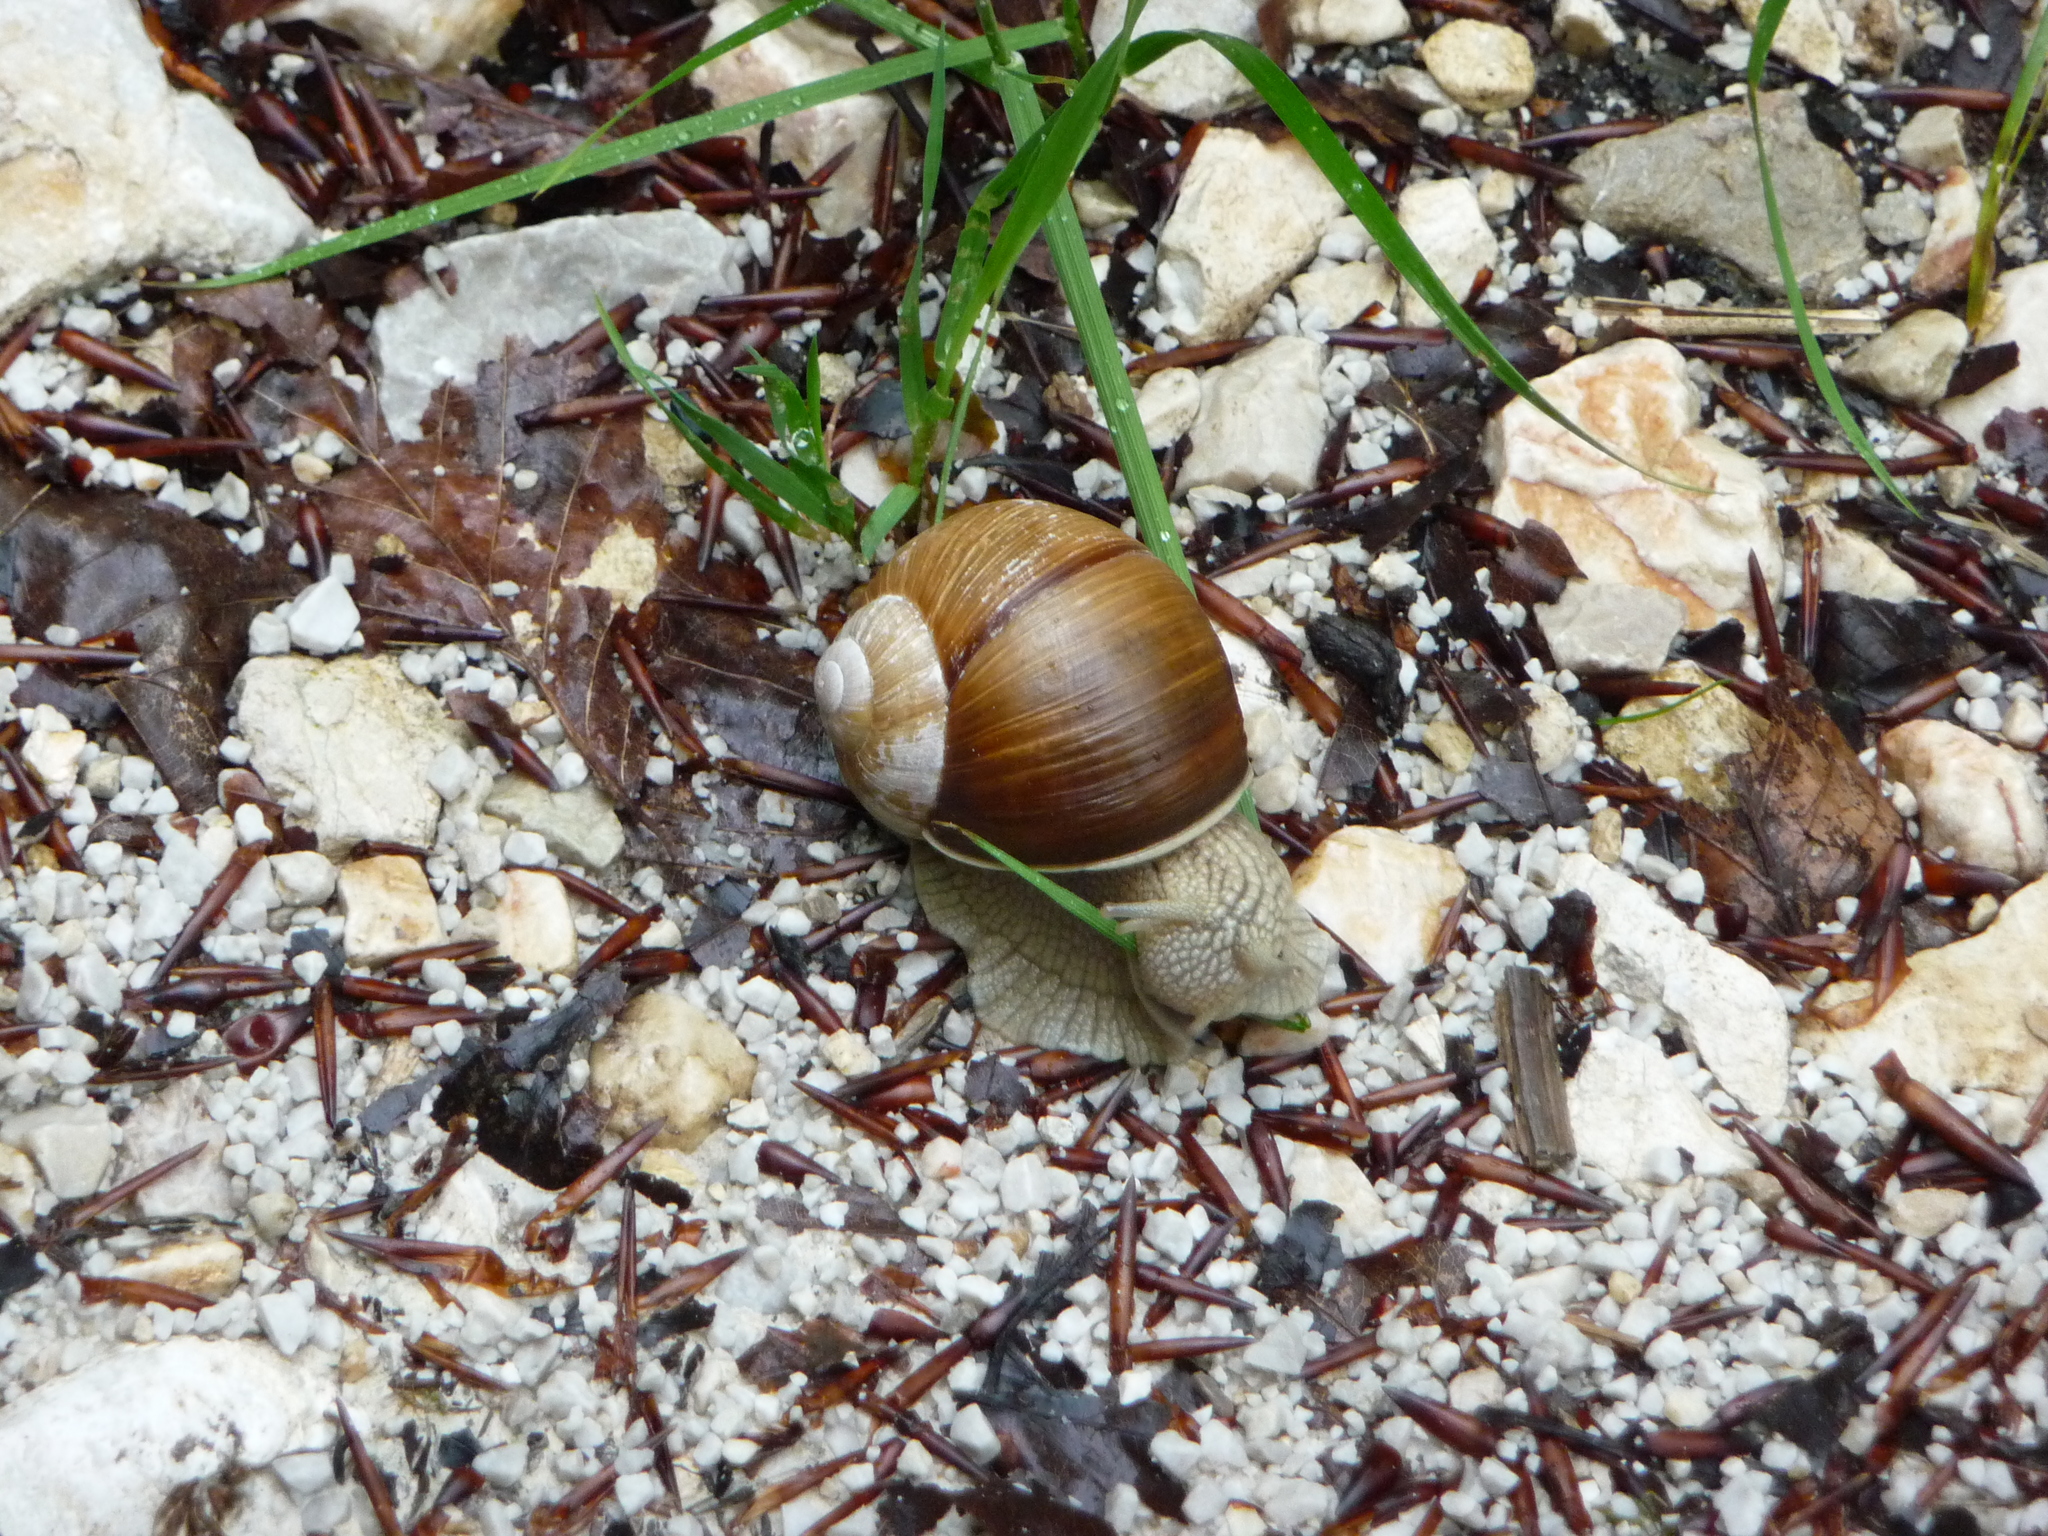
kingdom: Animalia
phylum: Mollusca
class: Gastropoda
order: Stylommatophora
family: Helicidae
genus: Helix
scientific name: Helix pomatia
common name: Roman snail
